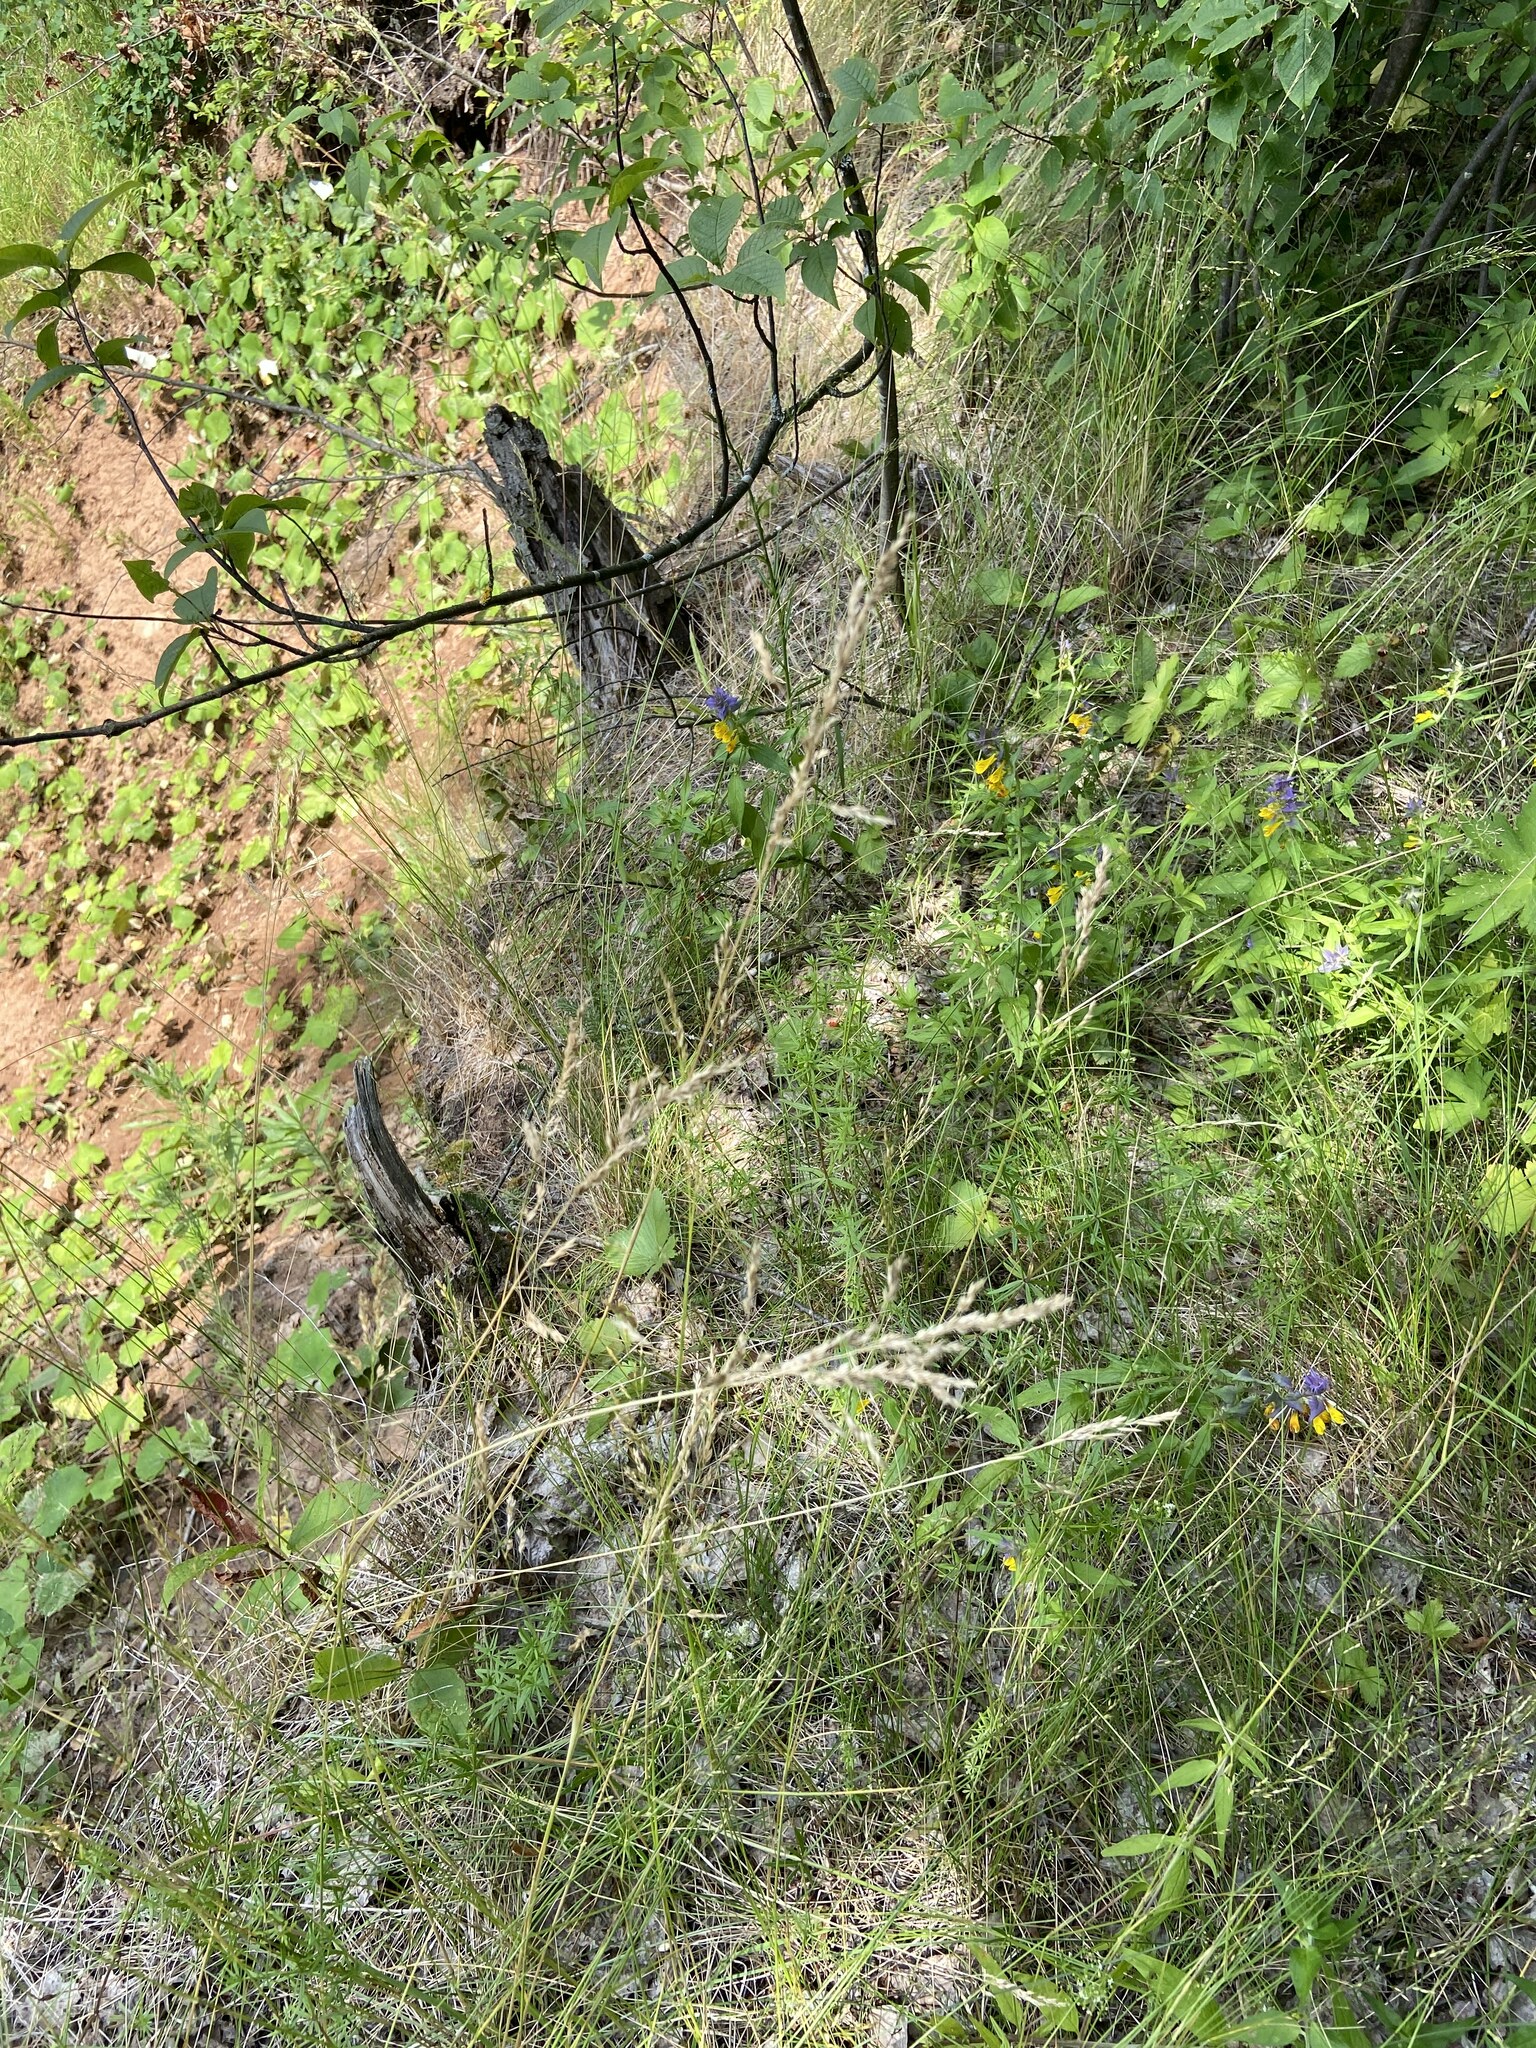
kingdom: Plantae
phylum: Tracheophyta
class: Magnoliopsida
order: Gentianales
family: Rubiaceae
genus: Galium
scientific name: Galium mollugo
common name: Hedge bedstraw
